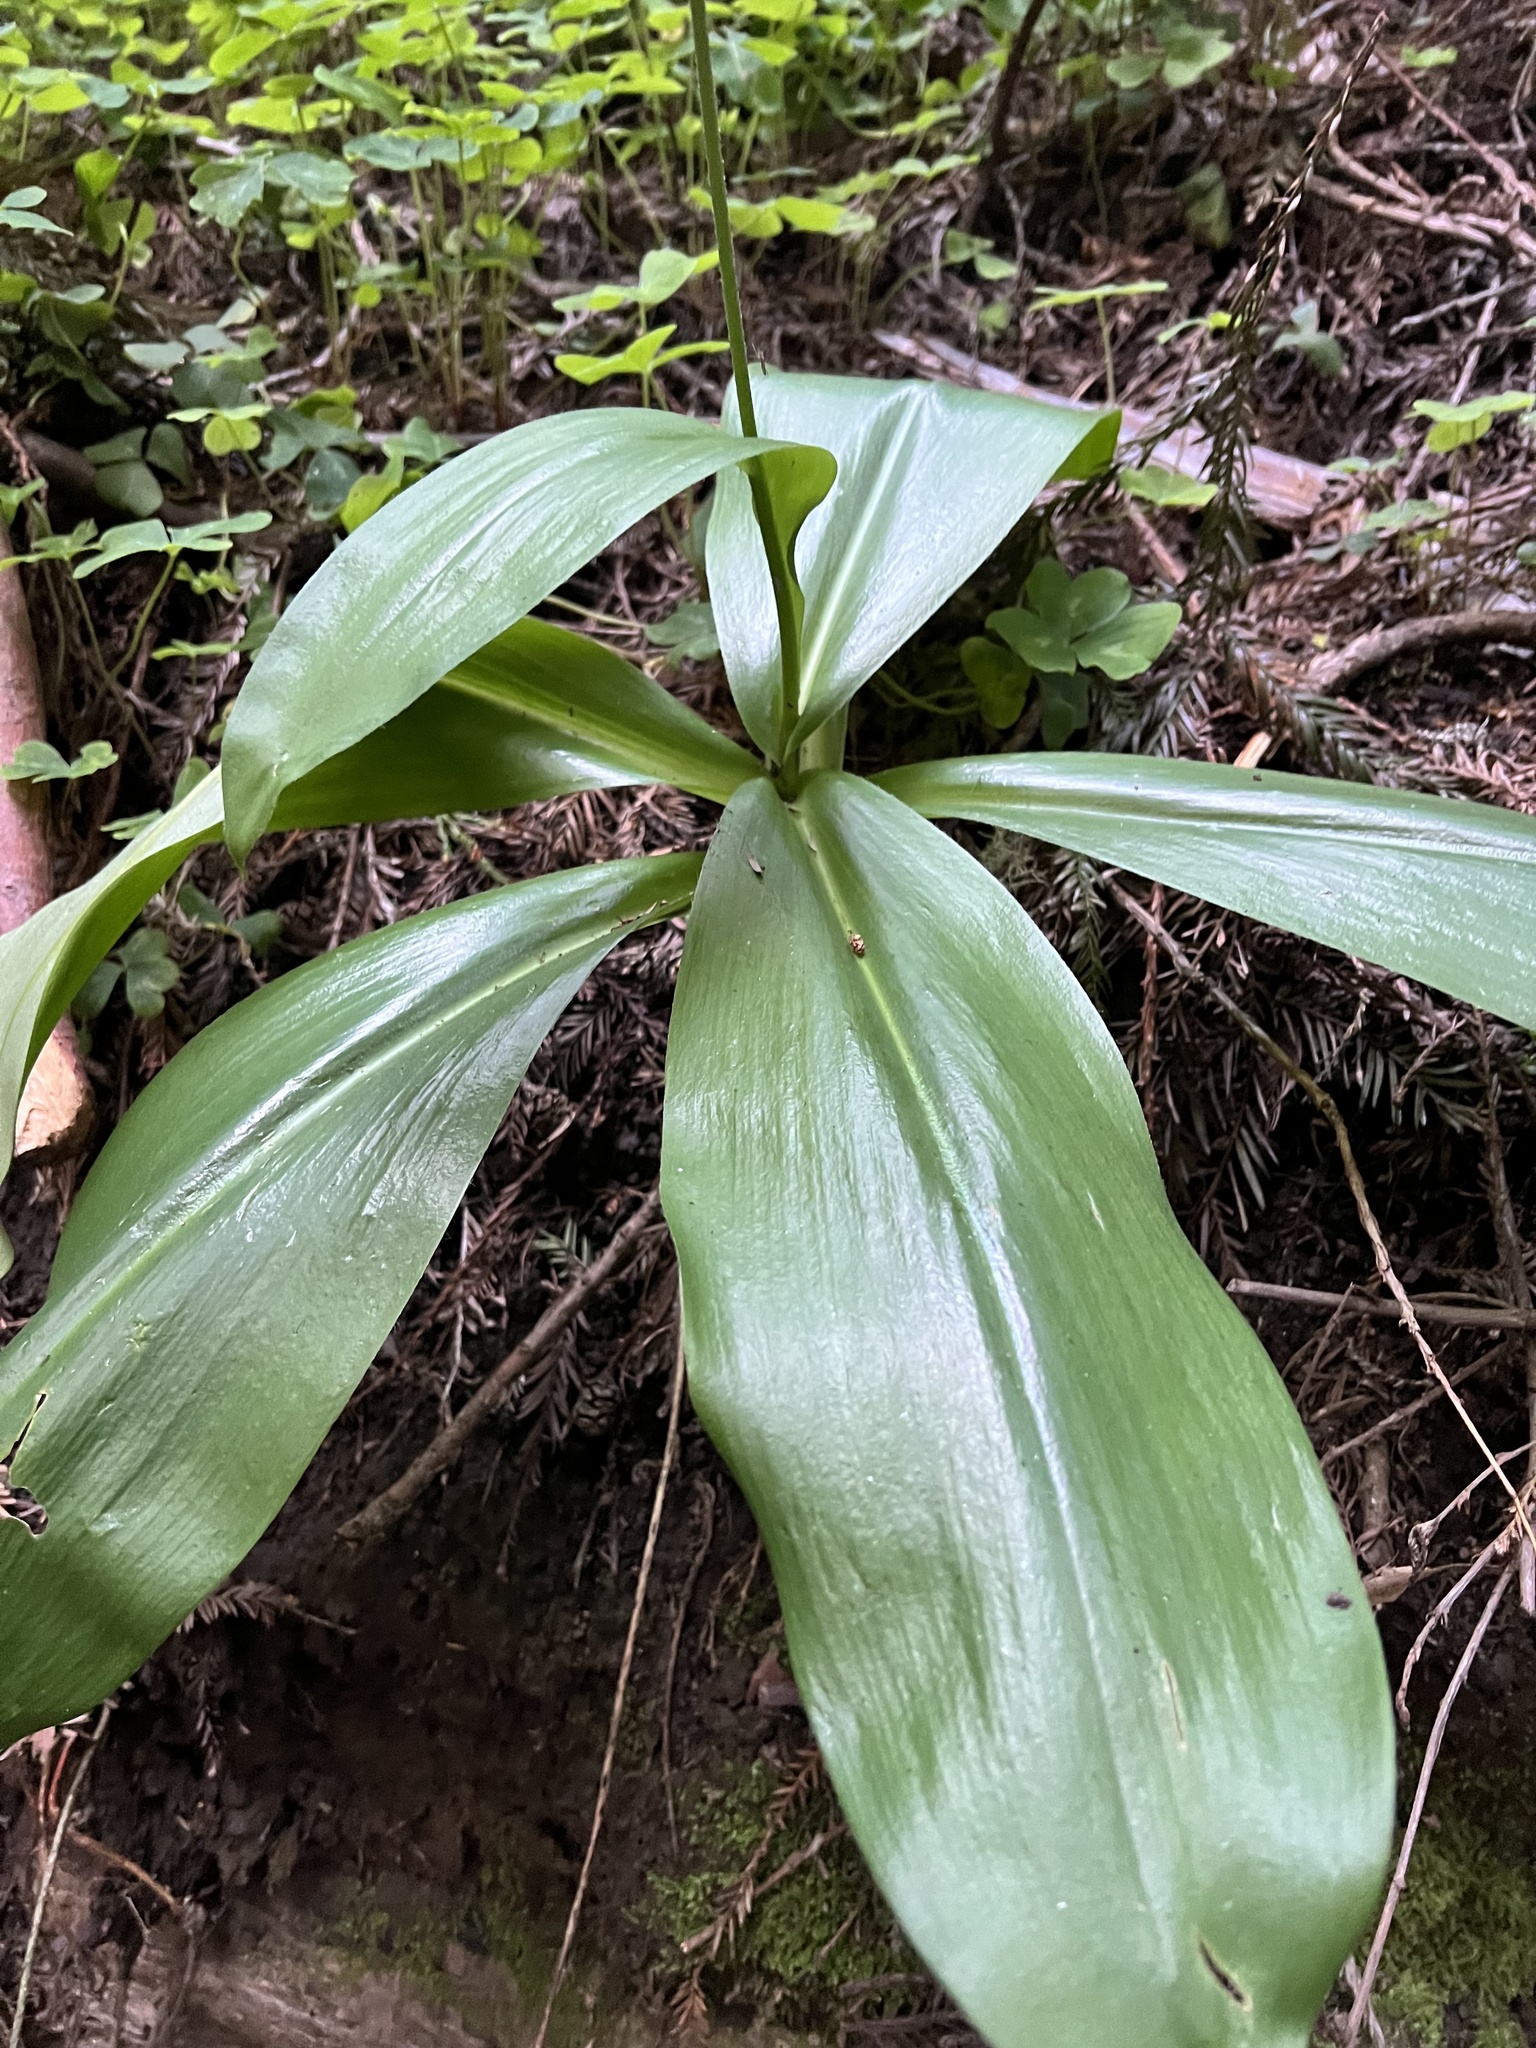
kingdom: Plantae
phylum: Tracheophyta
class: Liliopsida
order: Liliales
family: Liliaceae
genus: Clintonia
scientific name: Clintonia andrewsiana
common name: Red clintonia
